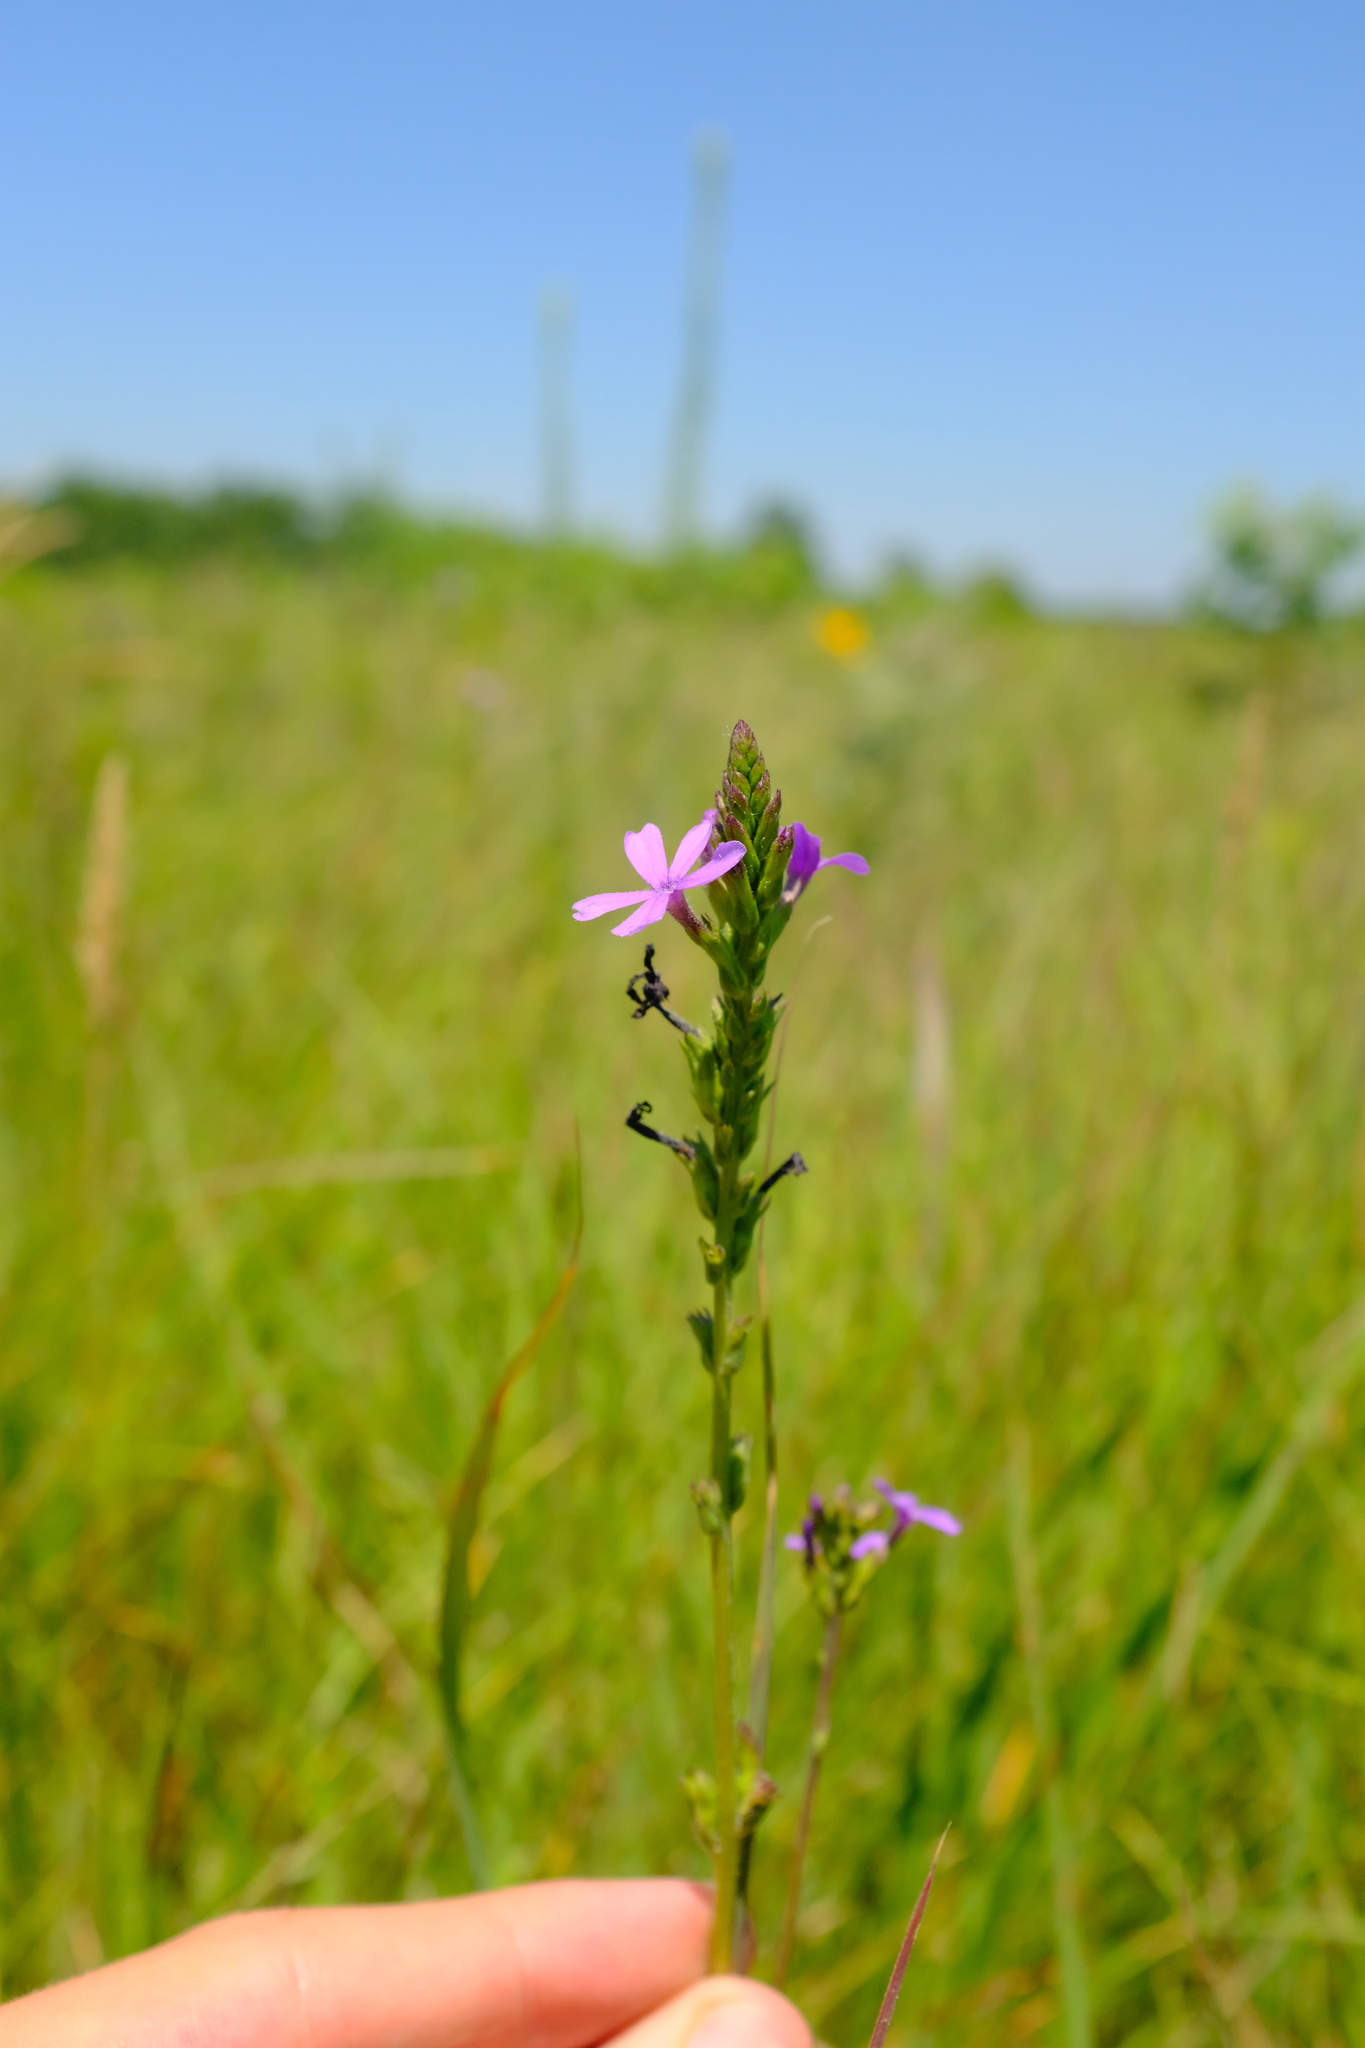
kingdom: Plantae
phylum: Tracheophyta
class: Magnoliopsida
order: Lamiales
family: Orobanchaceae
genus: Buchnera
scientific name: Buchnera americana
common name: American bluehearts
